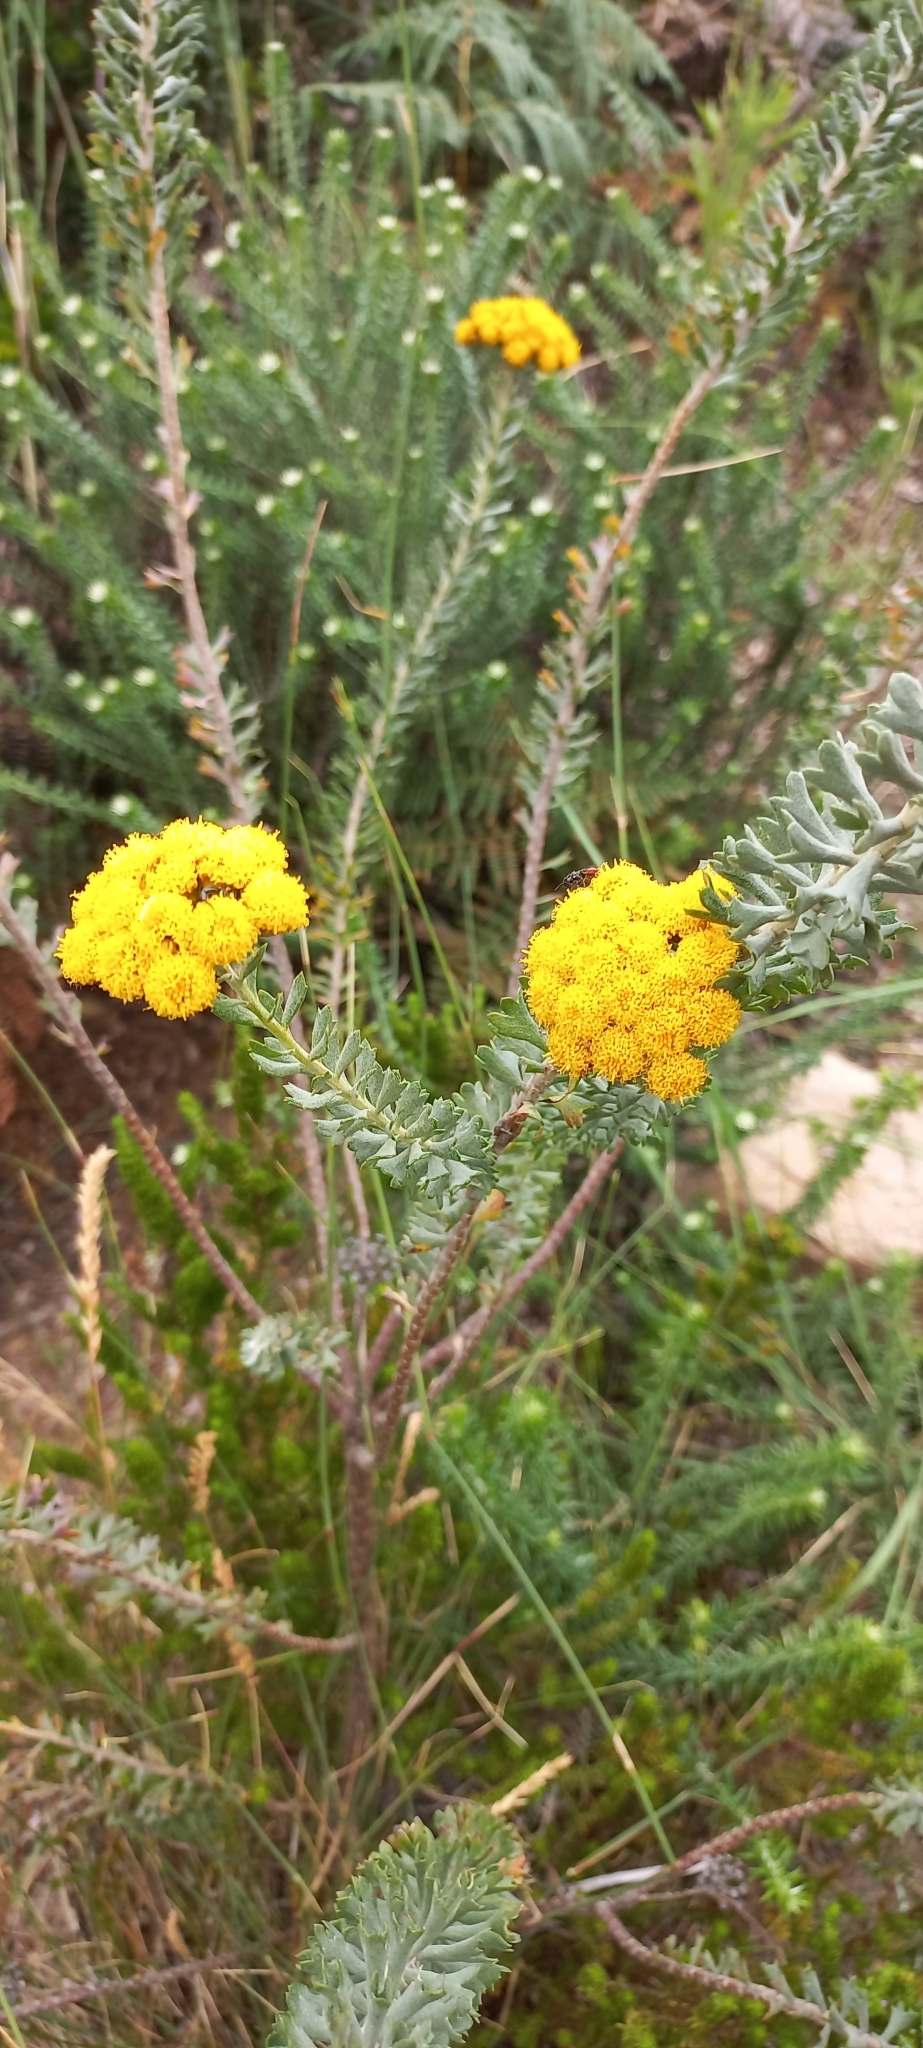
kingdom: Plantae
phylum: Tracheophyta
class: Magnoliopsida
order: Asterales
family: Asteraceae
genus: Athanasia
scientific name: Athanasia trifurcata
